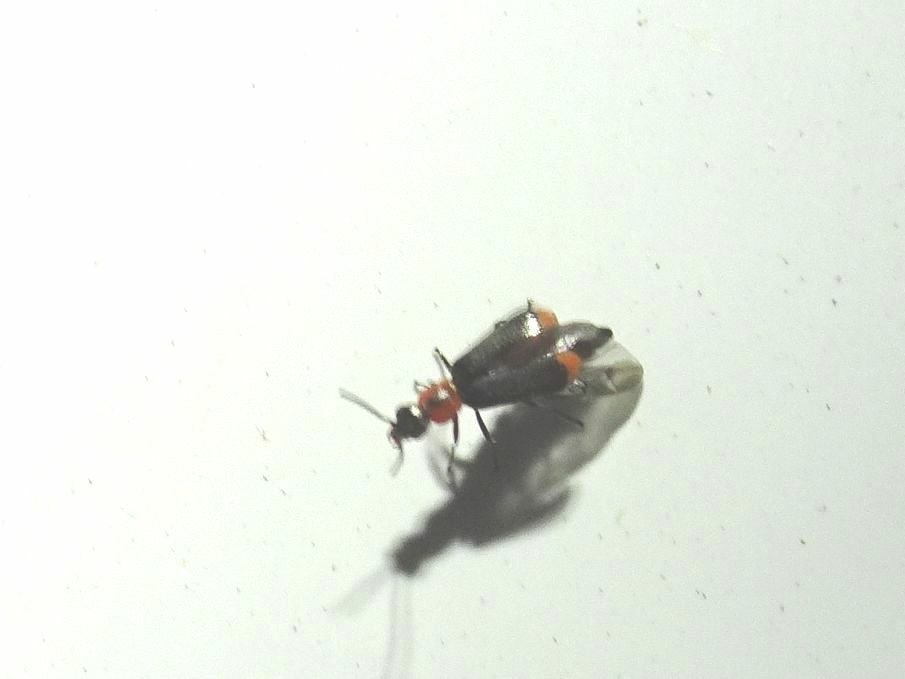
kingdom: Animalia
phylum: Arthropoda
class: Insecta
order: Coleoptera
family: Malachiidae
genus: Attalus
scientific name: Attalus minimus
